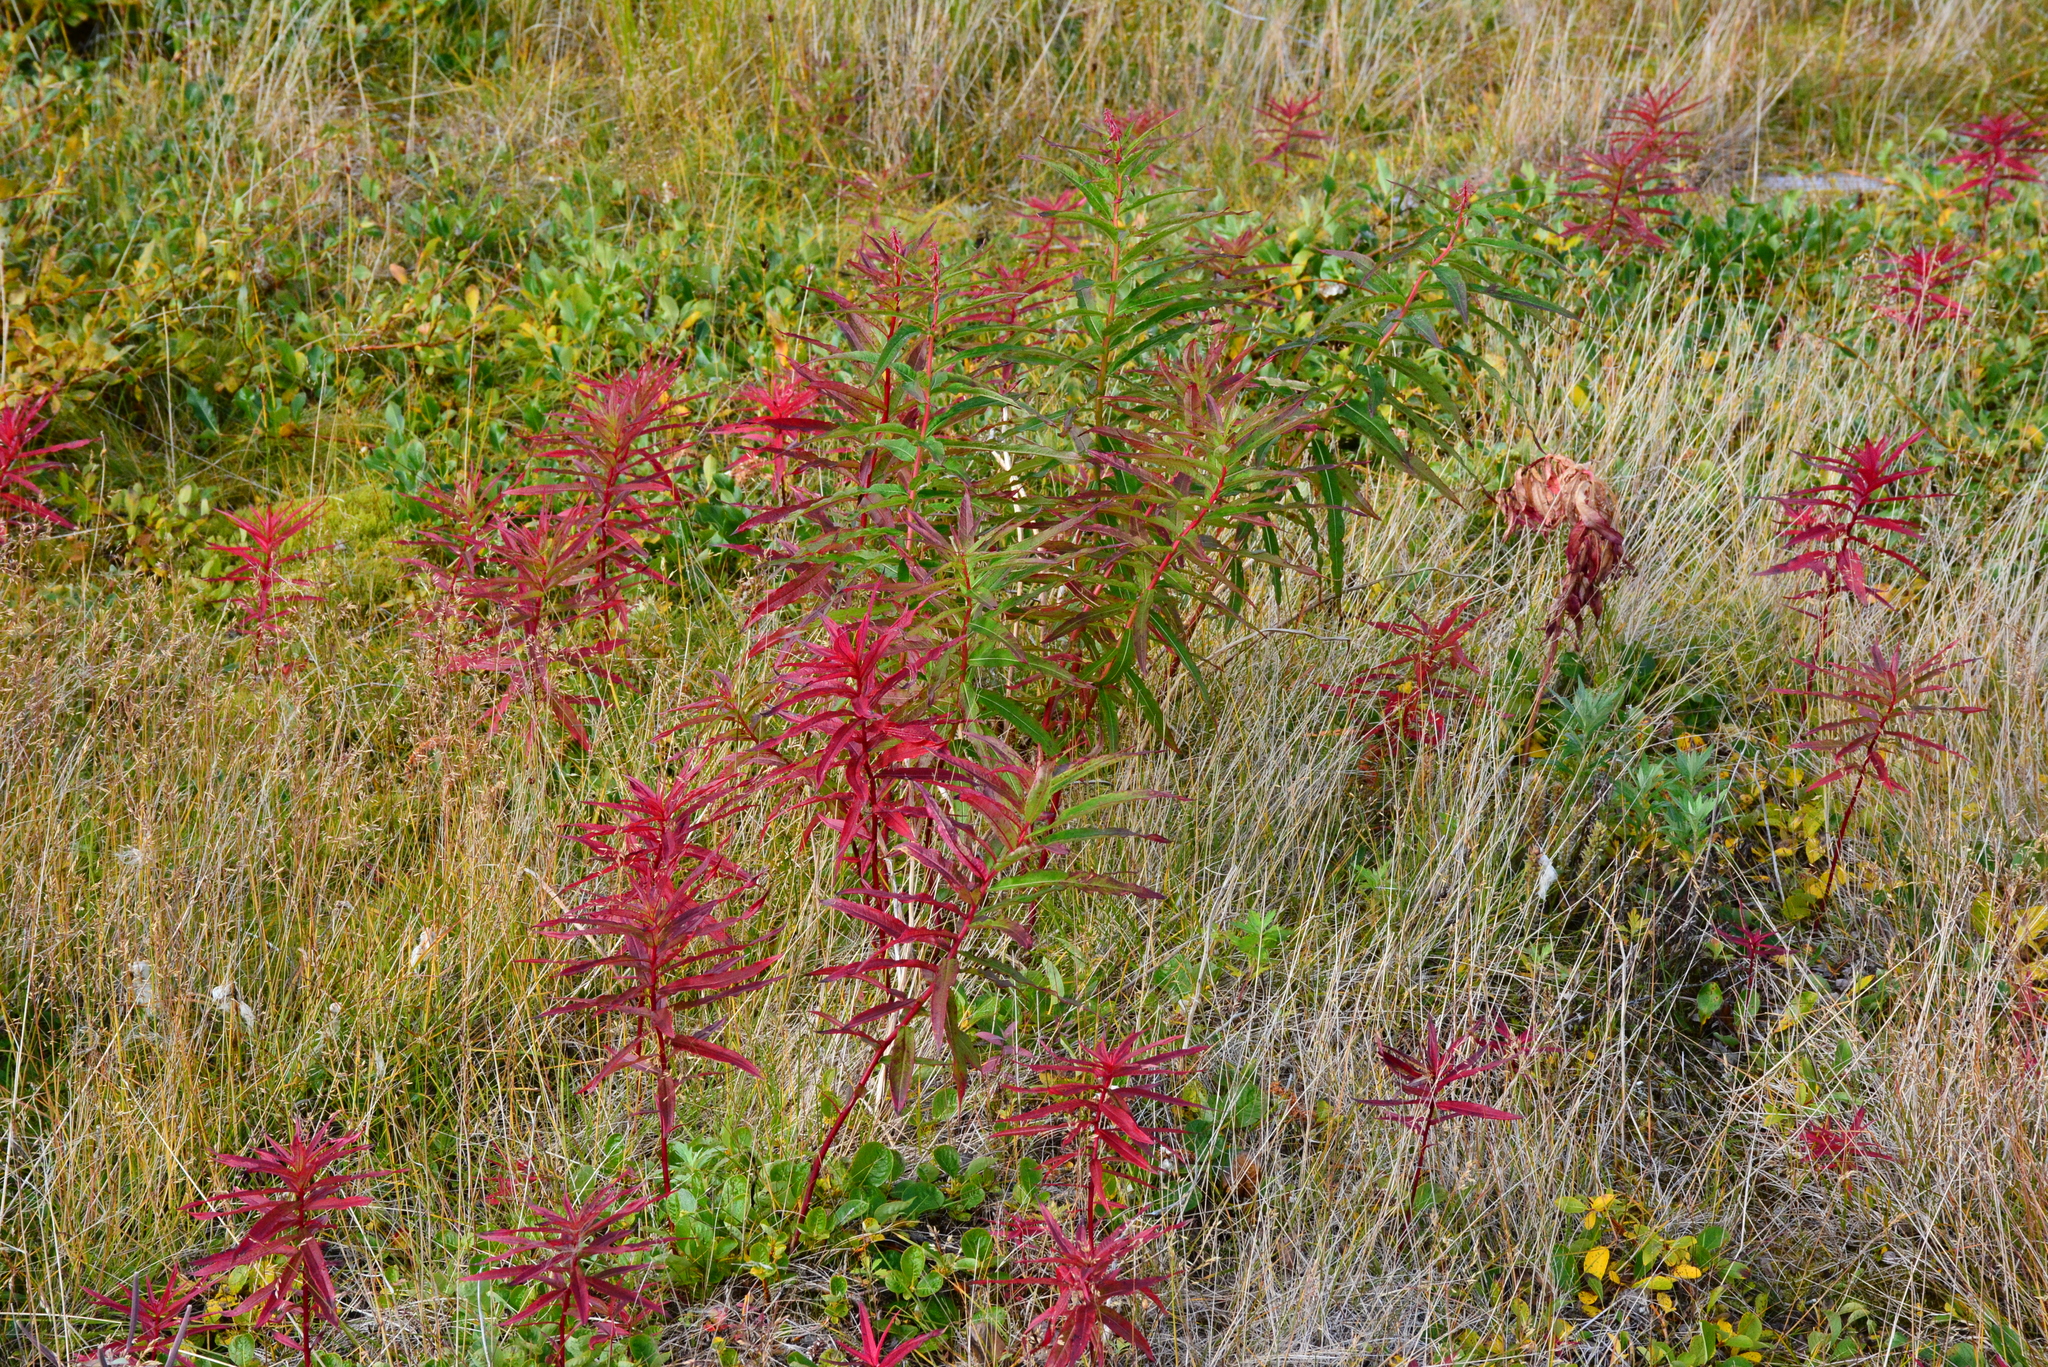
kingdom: Plantae
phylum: Tracheophyta
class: Magnoliopsida
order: Myrtales
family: Onagraceae
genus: Chamaenerion
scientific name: Chamaenerion angustifolium
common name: Fireweed
